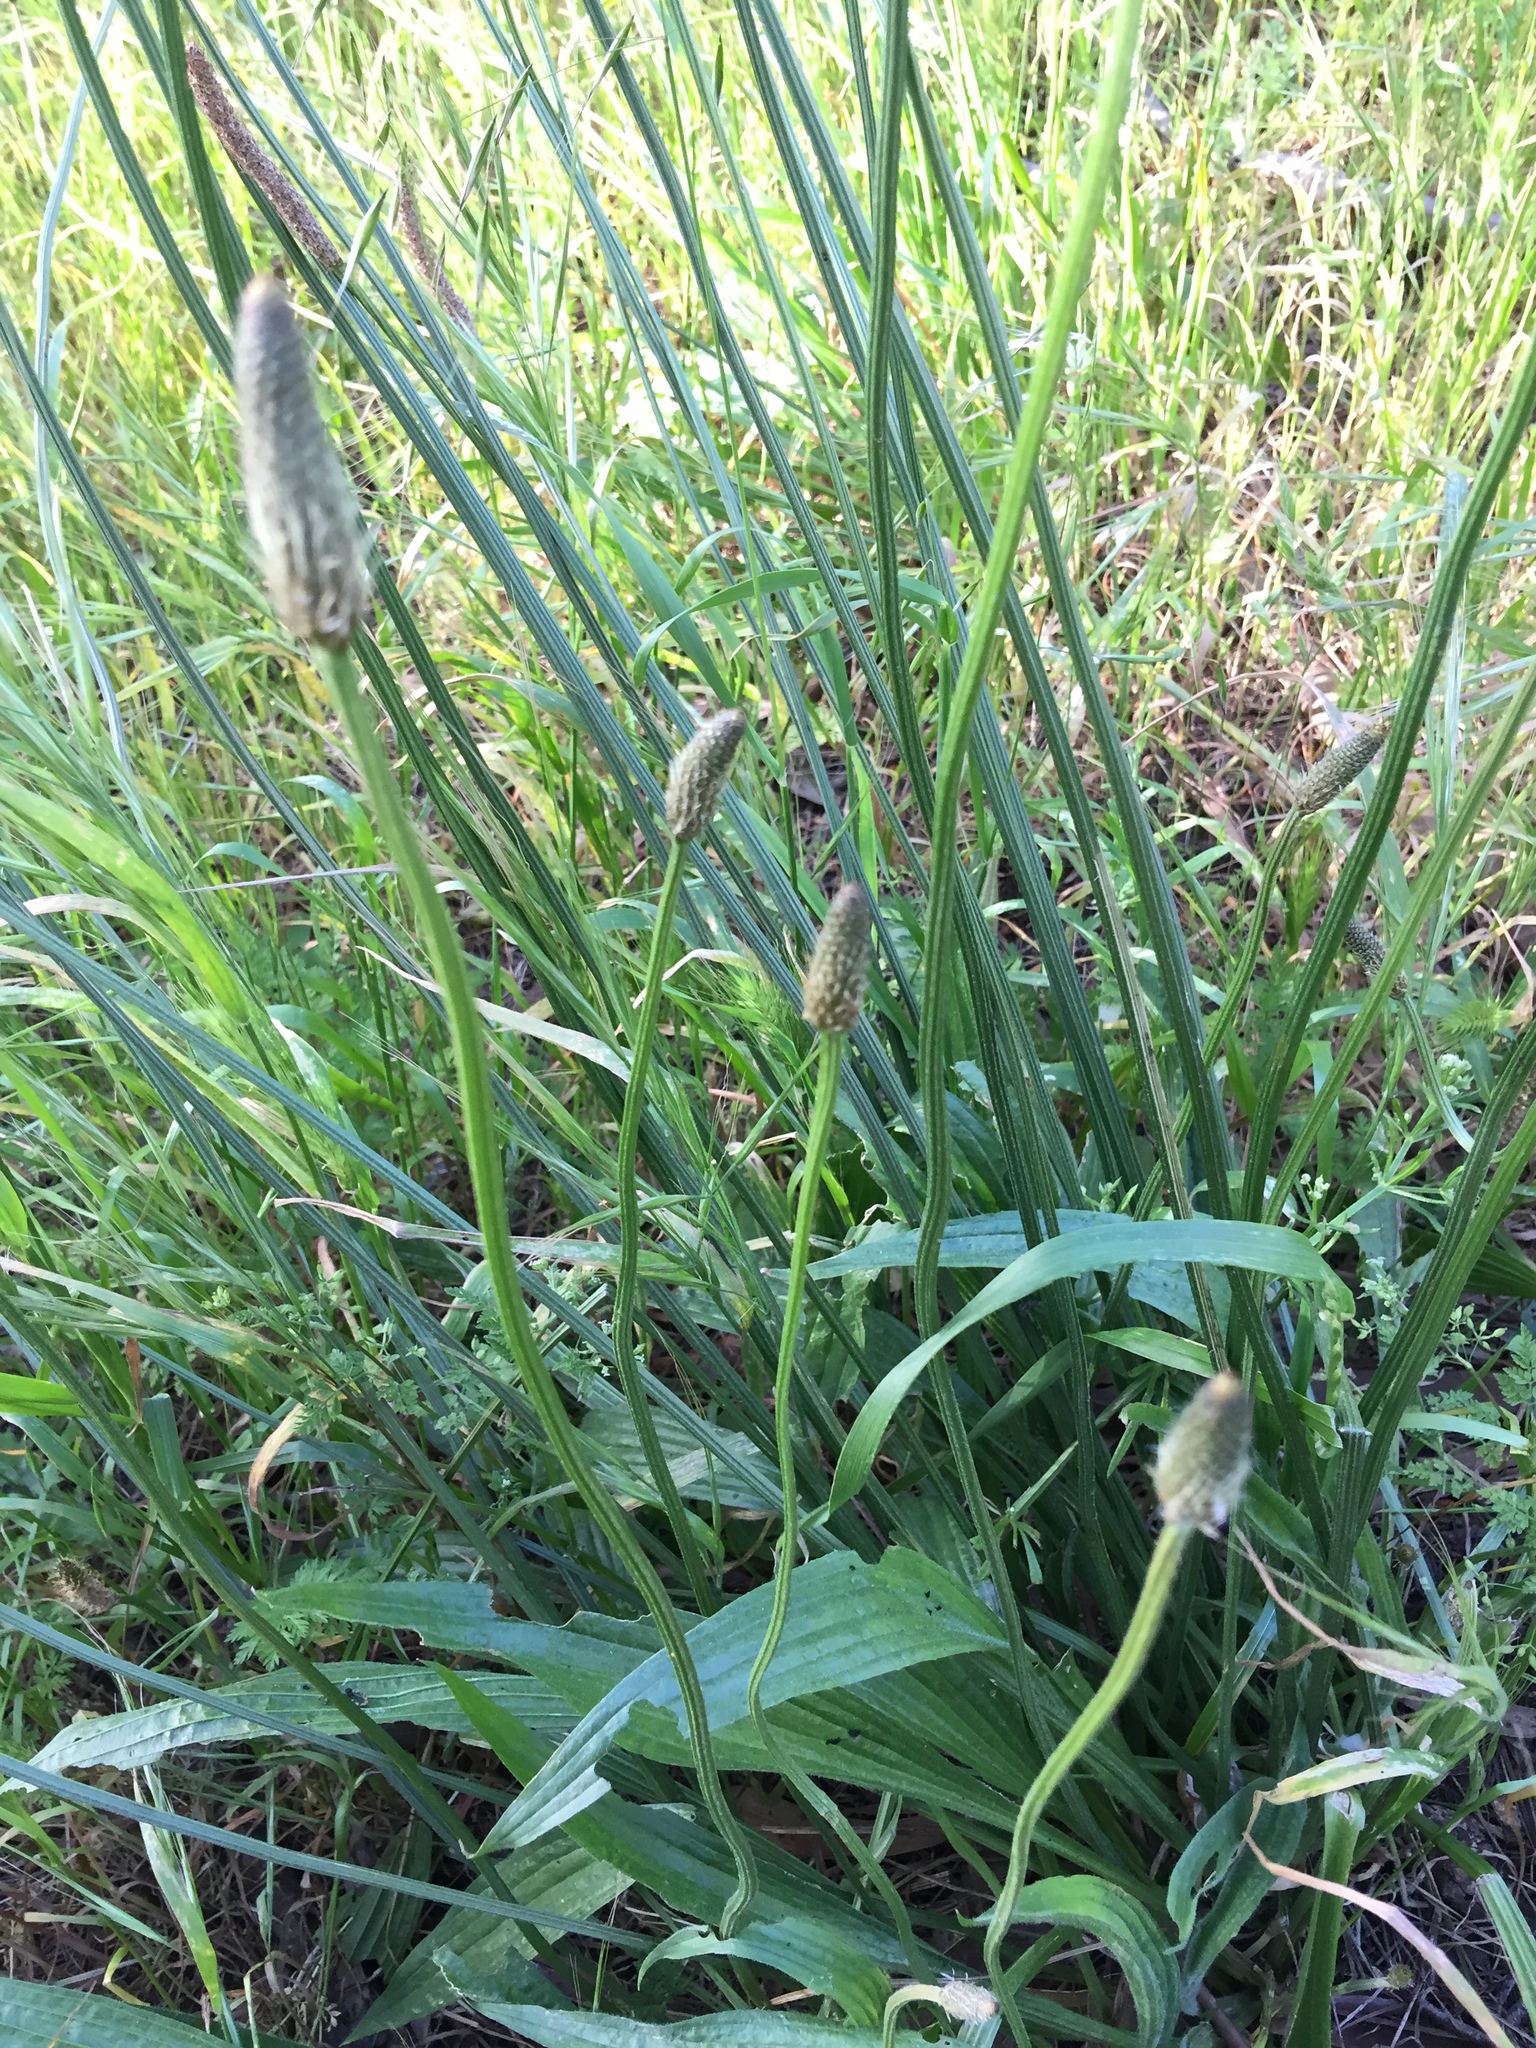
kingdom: Plantae
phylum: Tracheophyta
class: Magnoliopsida
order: Lamiales
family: Plantaginaceae
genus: Plantago
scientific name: Plantago lanceolata
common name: Ribwort plantain
